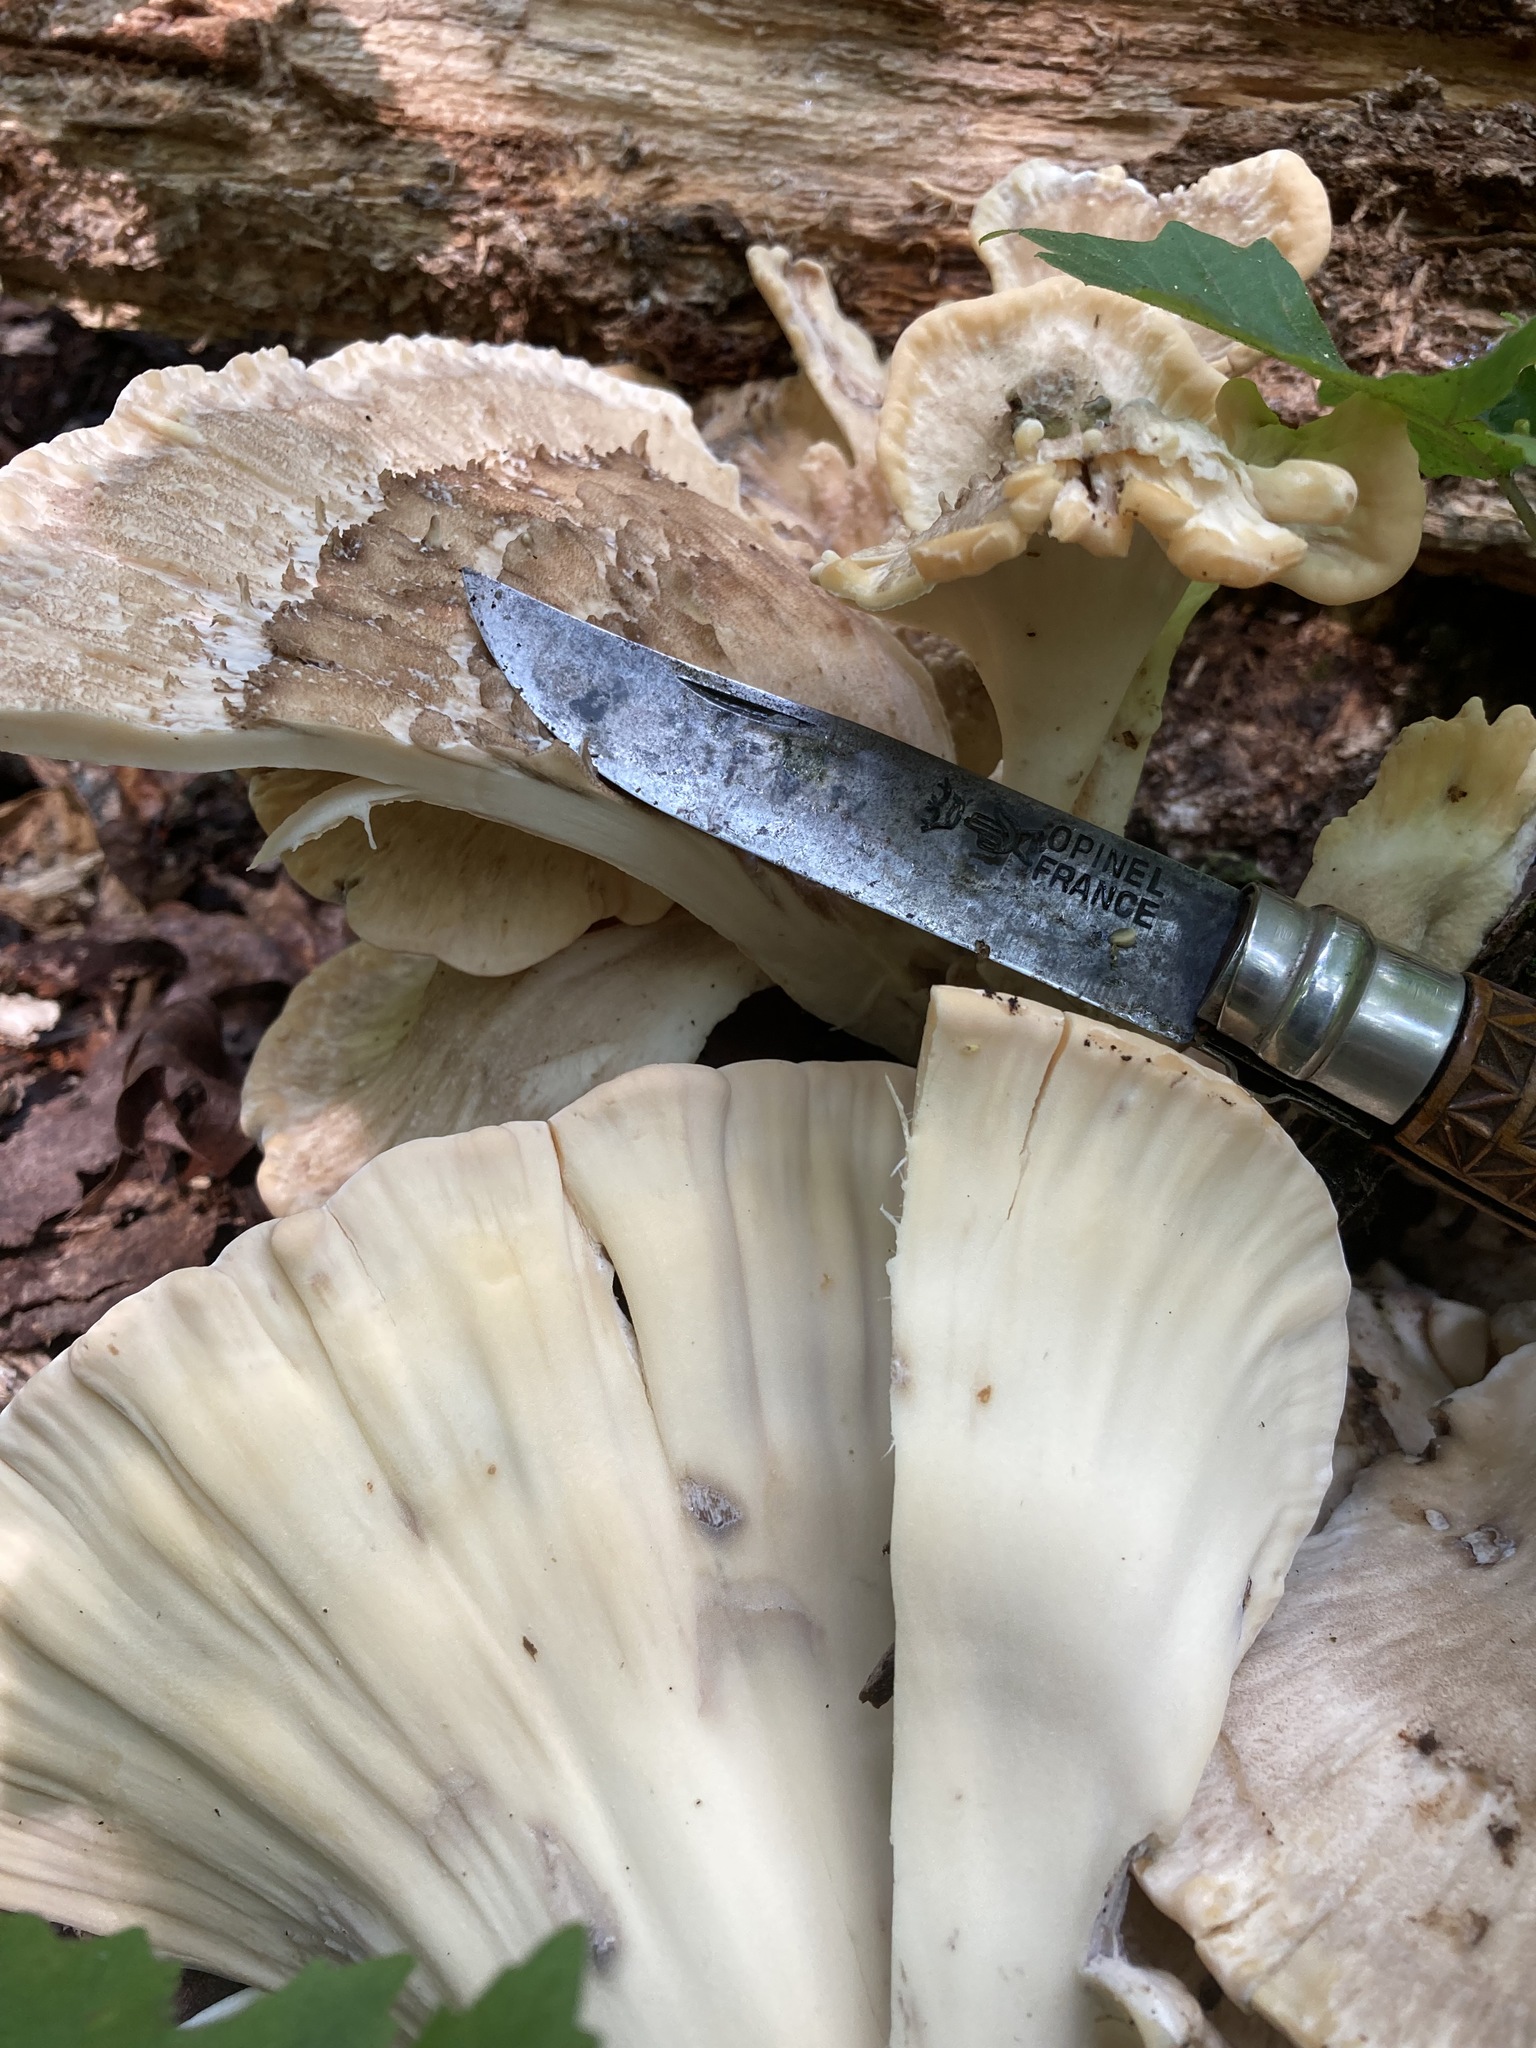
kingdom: Fungi
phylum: Basidiomycota
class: Agaricomycetes
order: Polyporales
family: Meripilaceae
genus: Meripilus
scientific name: Meripilus sumstinei
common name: Black-staining polypore
